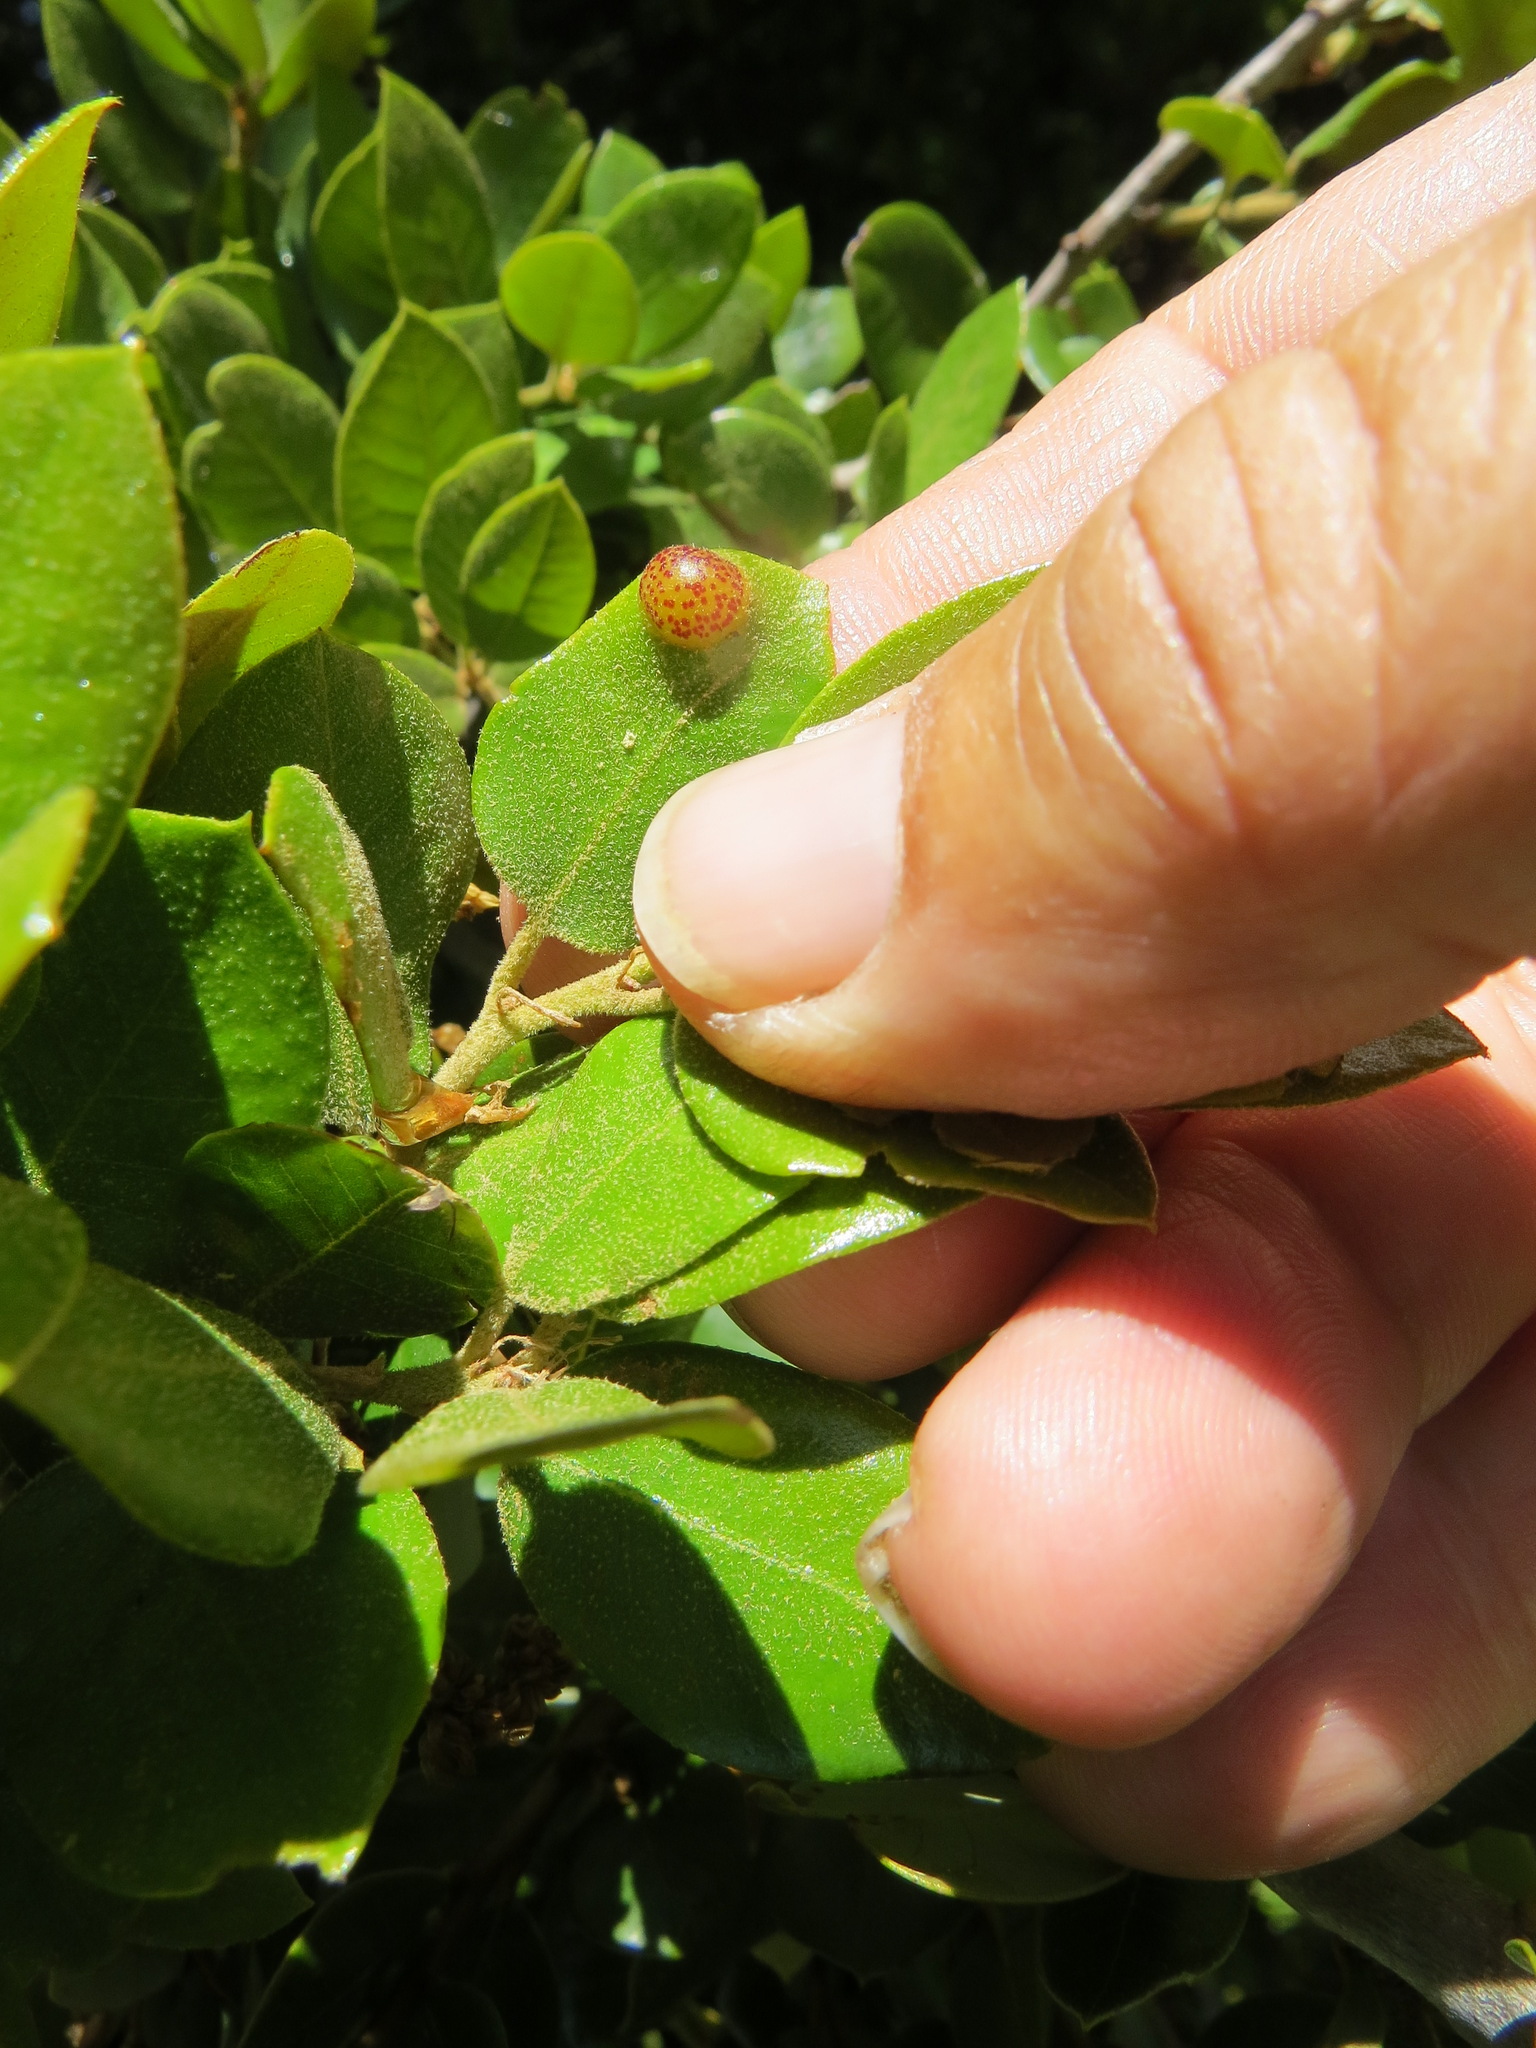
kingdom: Animalia
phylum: Arthropoda
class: Insecta
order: Hymenoptera
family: Cynipidae
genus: Heteroecus
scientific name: Heteroecus
